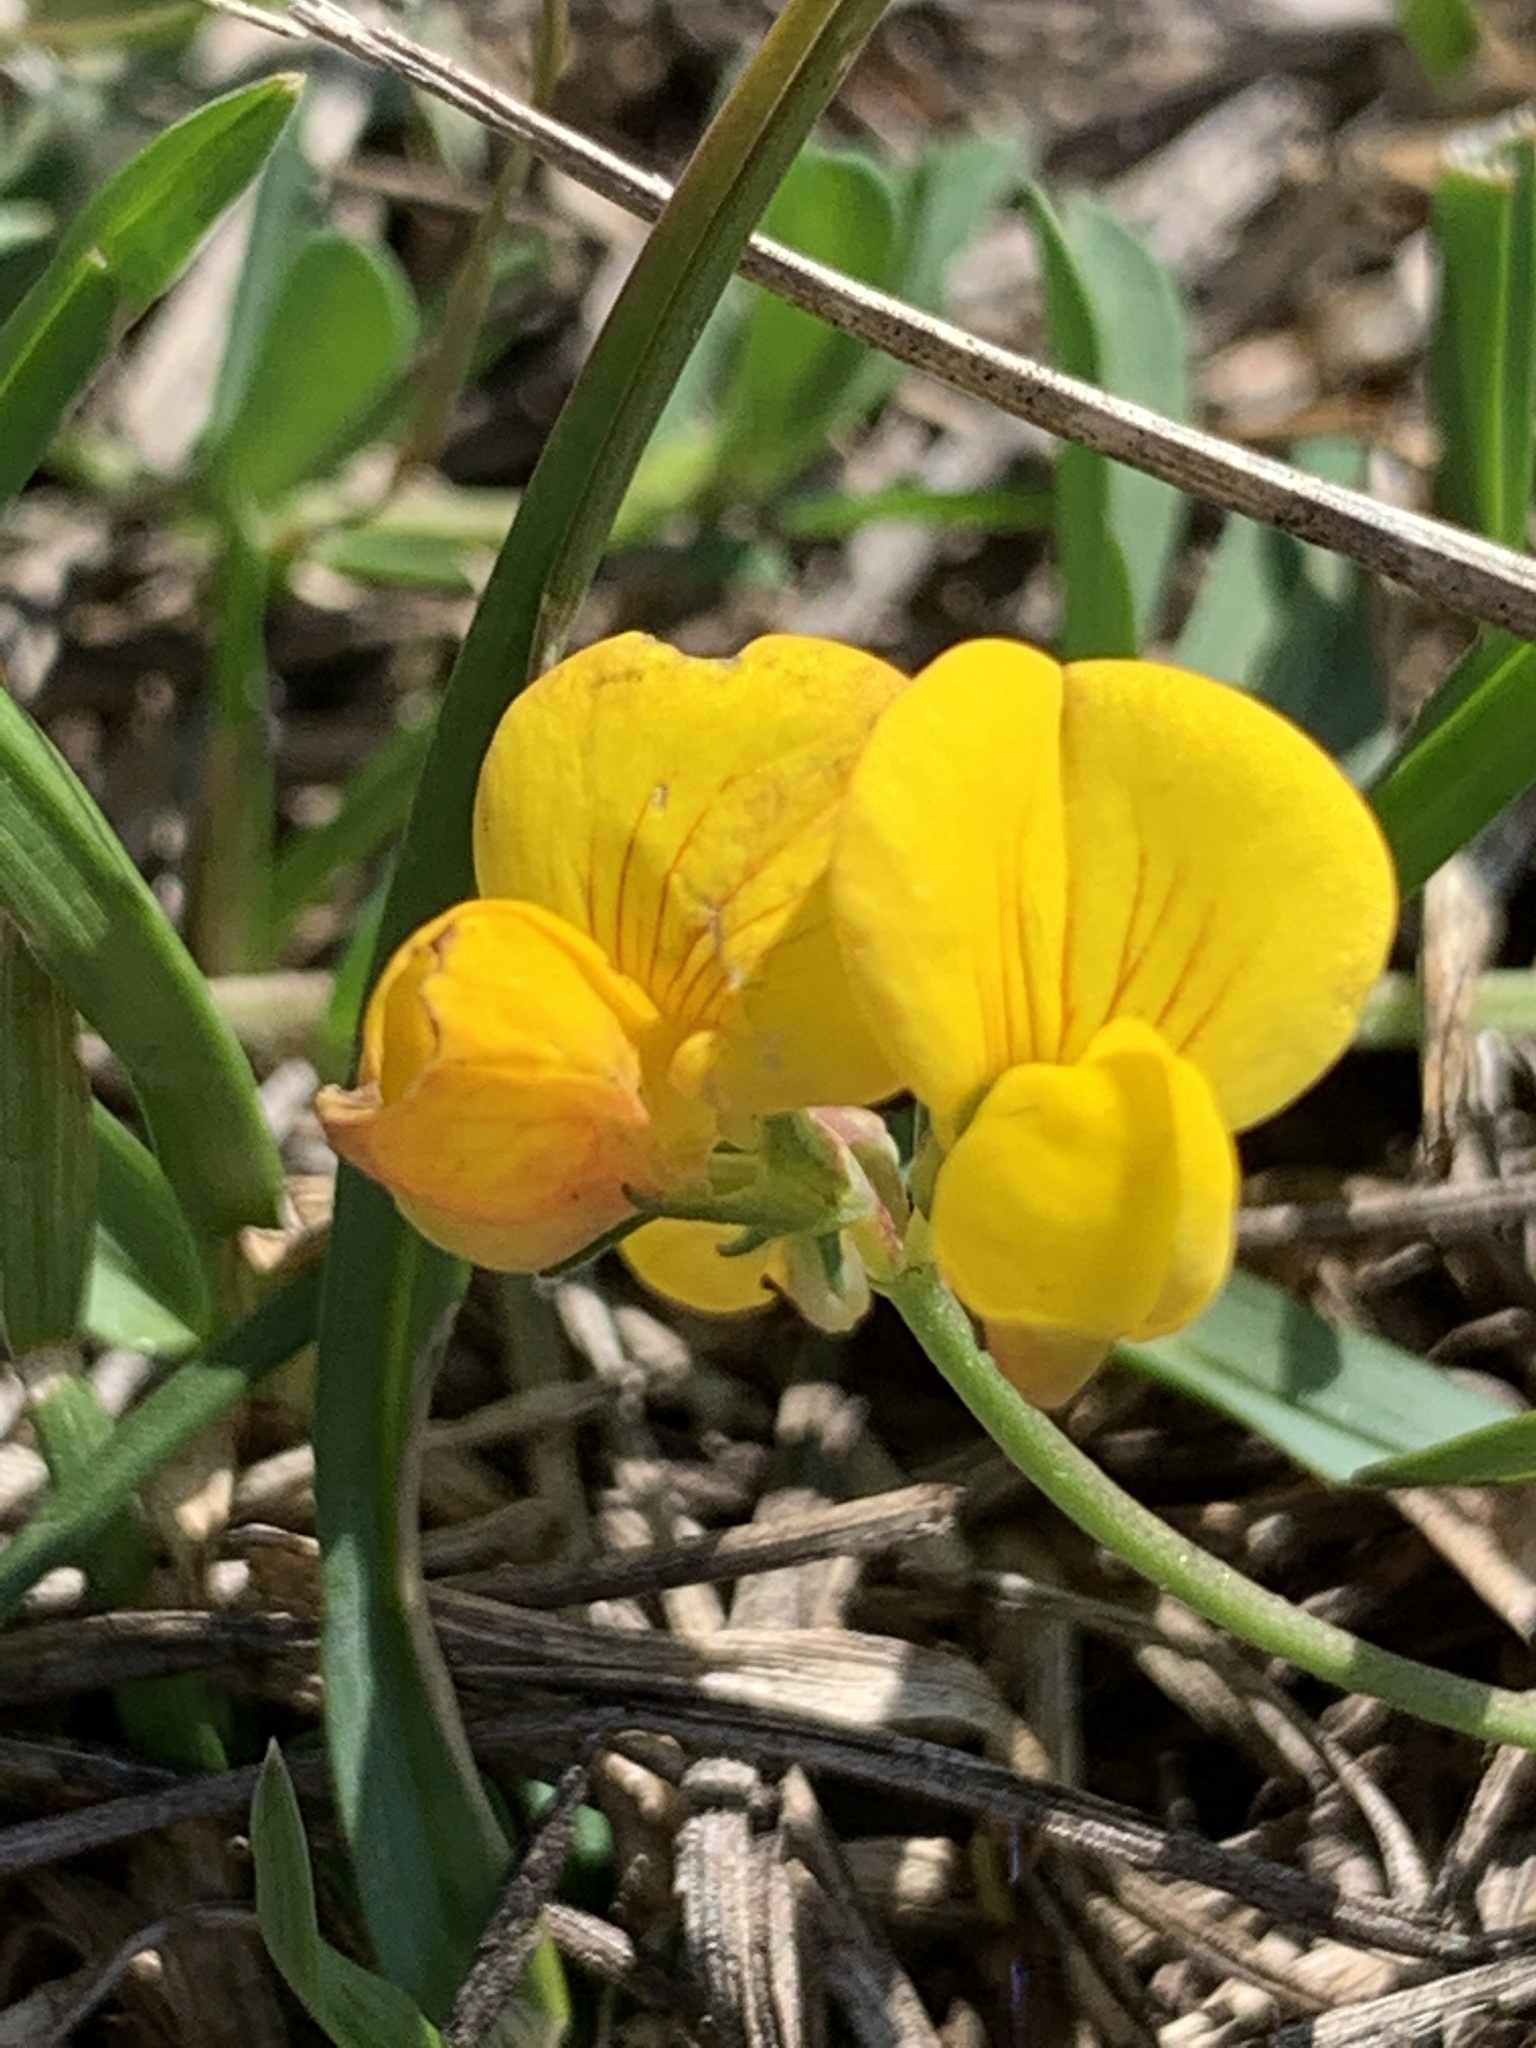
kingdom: Plantae
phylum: Tracheophyta
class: Magnoliopsida
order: Fabales
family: Fabaceae
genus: Lotus
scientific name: Lotus corniculatus
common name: Common bird's-foot-trefoil
